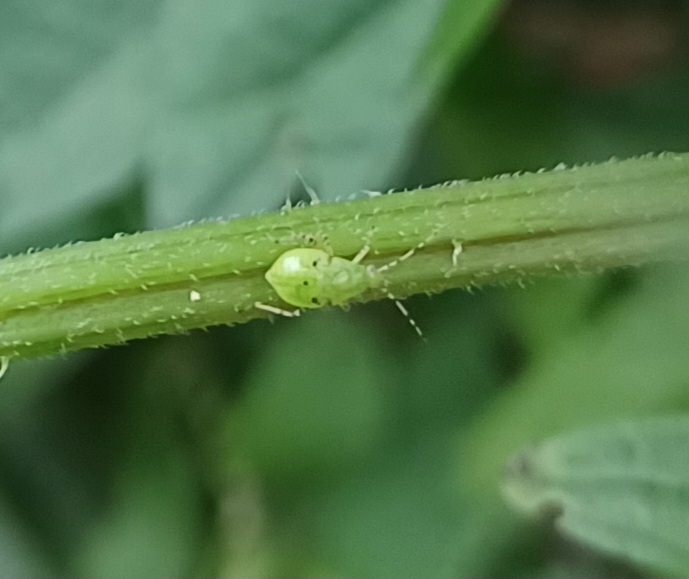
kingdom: Animalia
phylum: Arthropoda
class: Insecta
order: Hemiptera
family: Miridae
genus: Liocoris
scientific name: Liocoris tripustulatus
